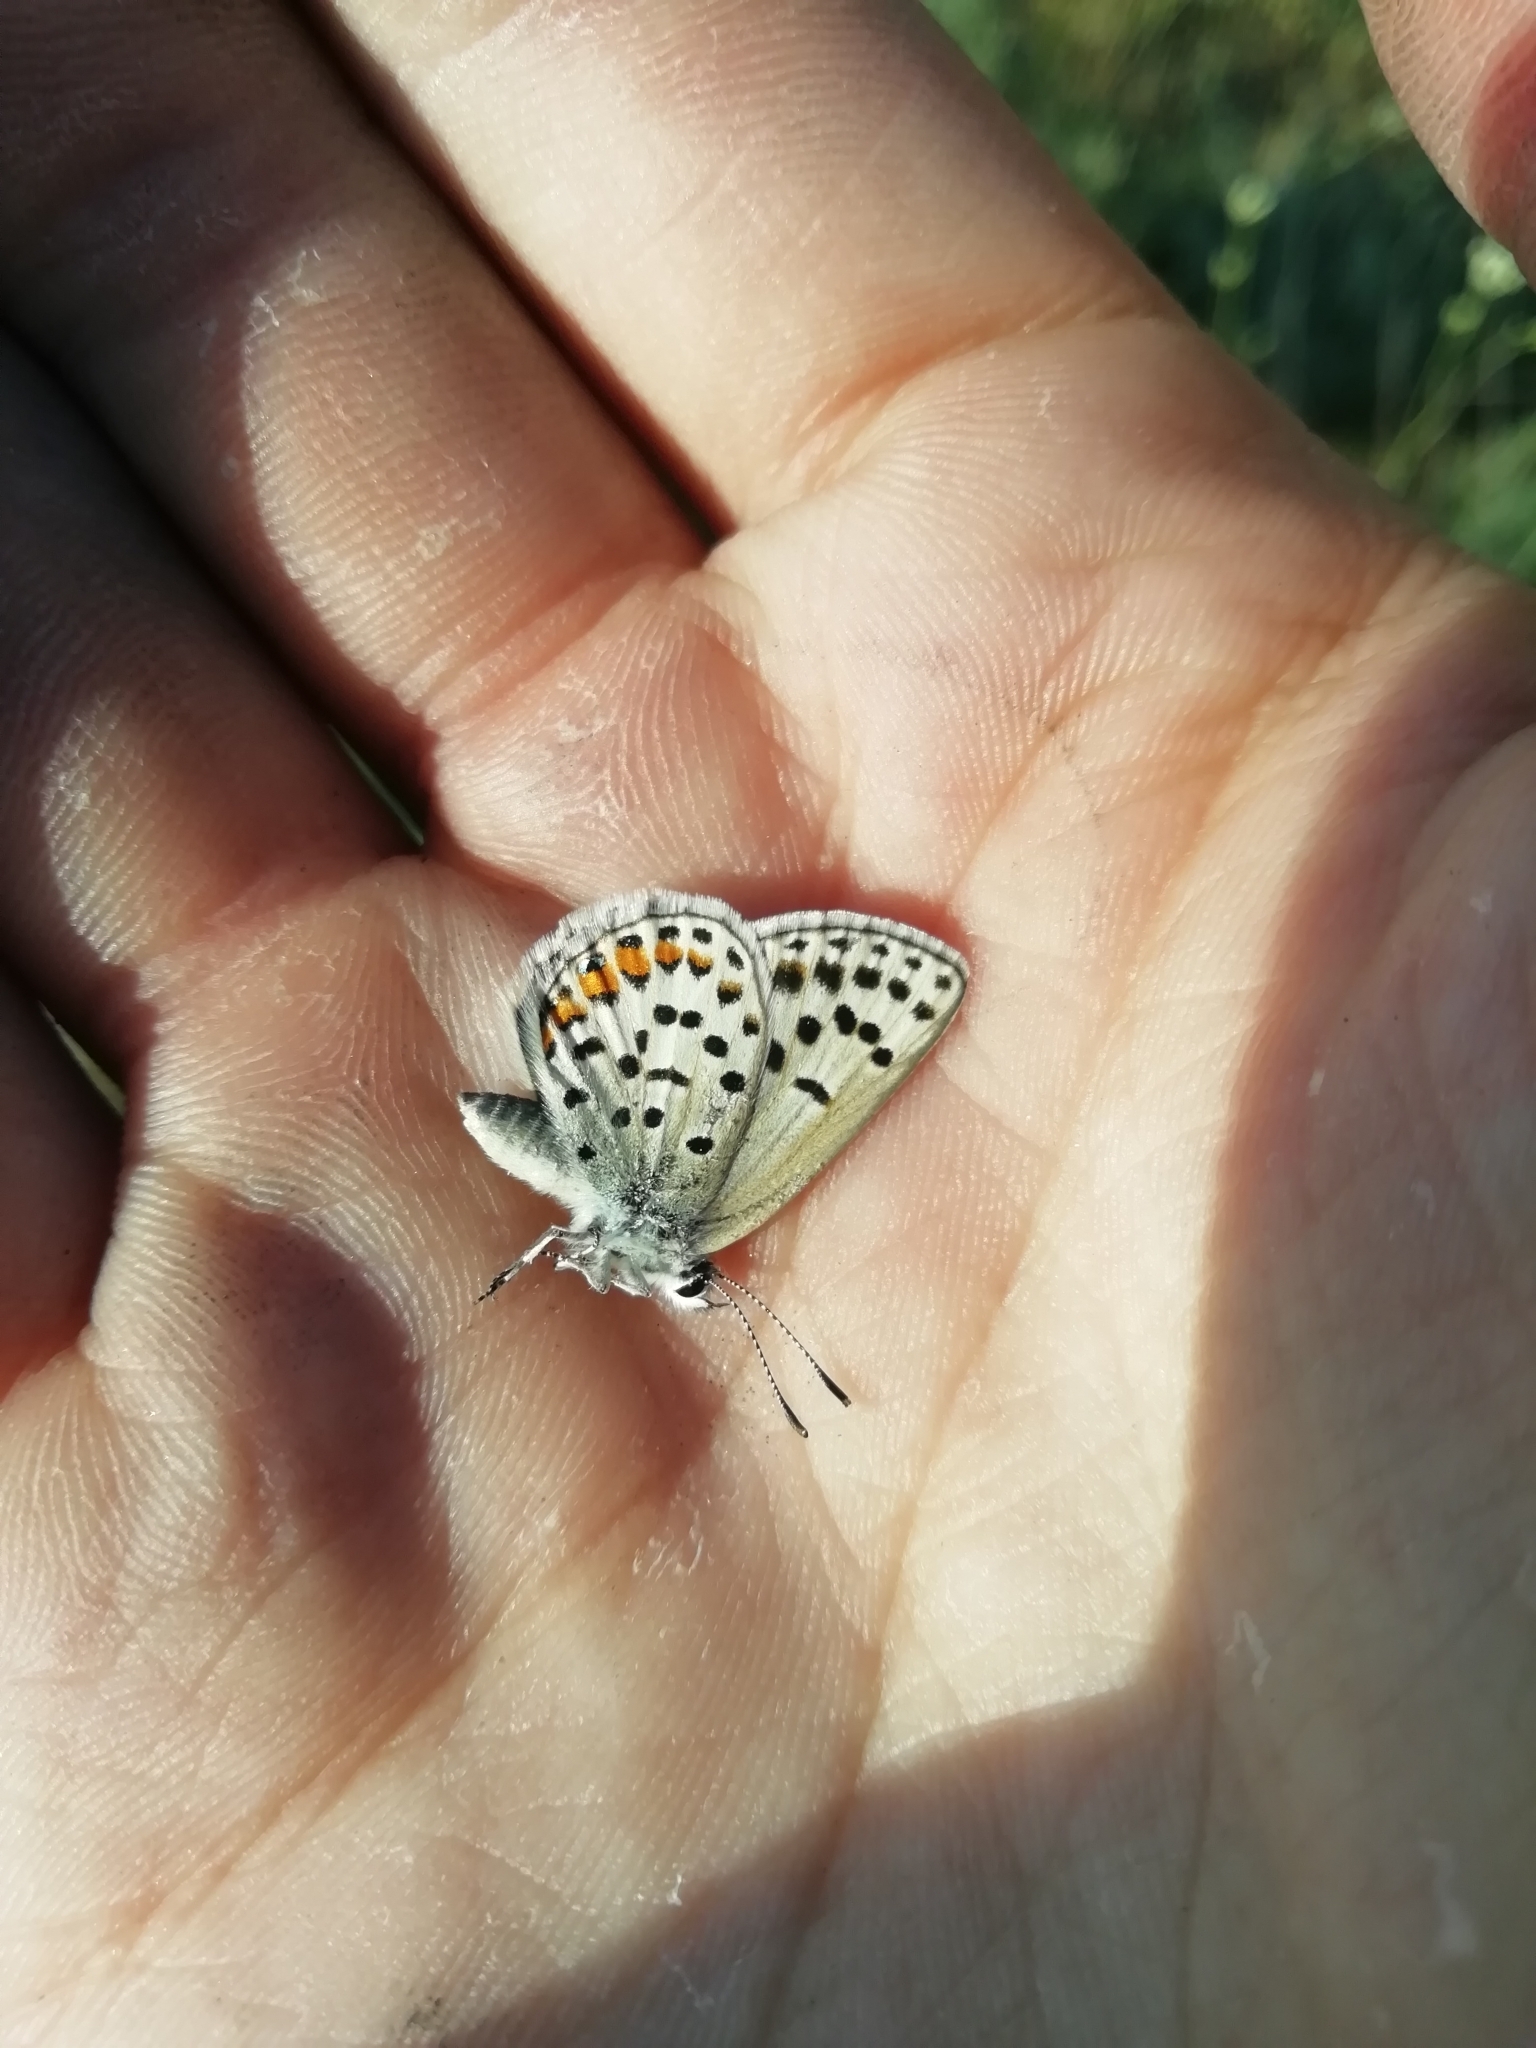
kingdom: Animalia
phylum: Arthropoda
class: Insecta
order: Lepidoptera
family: Lycaenidae
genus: Glabroculus
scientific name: Glabroculus cyane
